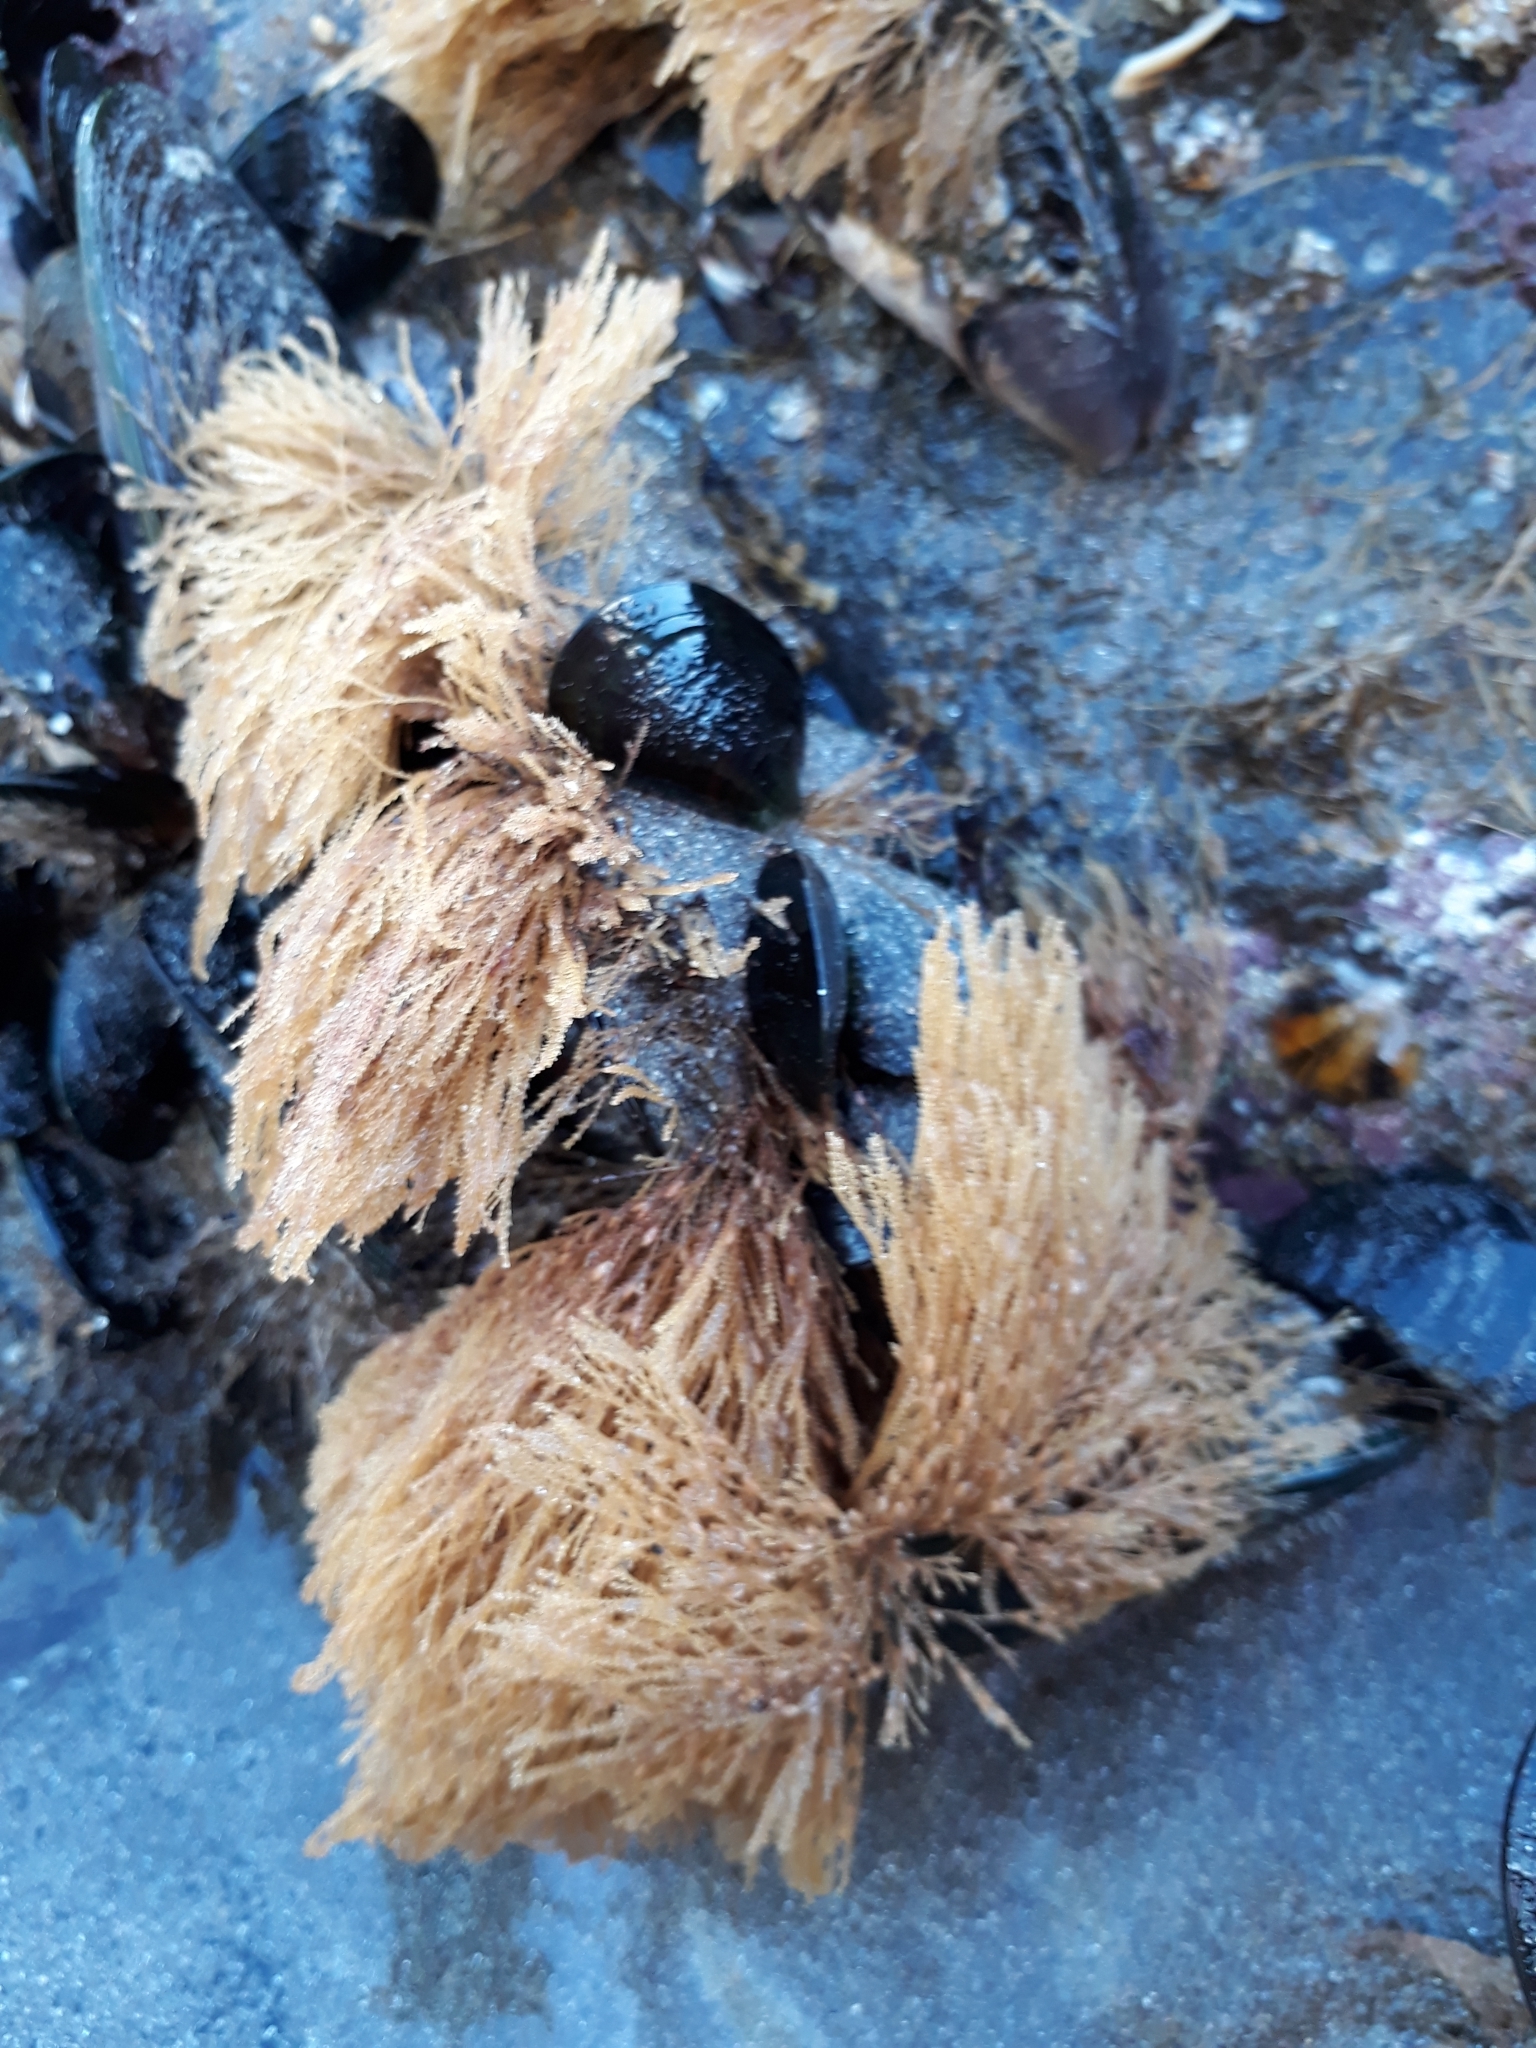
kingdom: Animalia
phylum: Cnidaria
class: Hydrozoa
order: Leptothecata
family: Sertulariidae
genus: Amphisbetia
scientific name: Amphisbetia bispinosa
